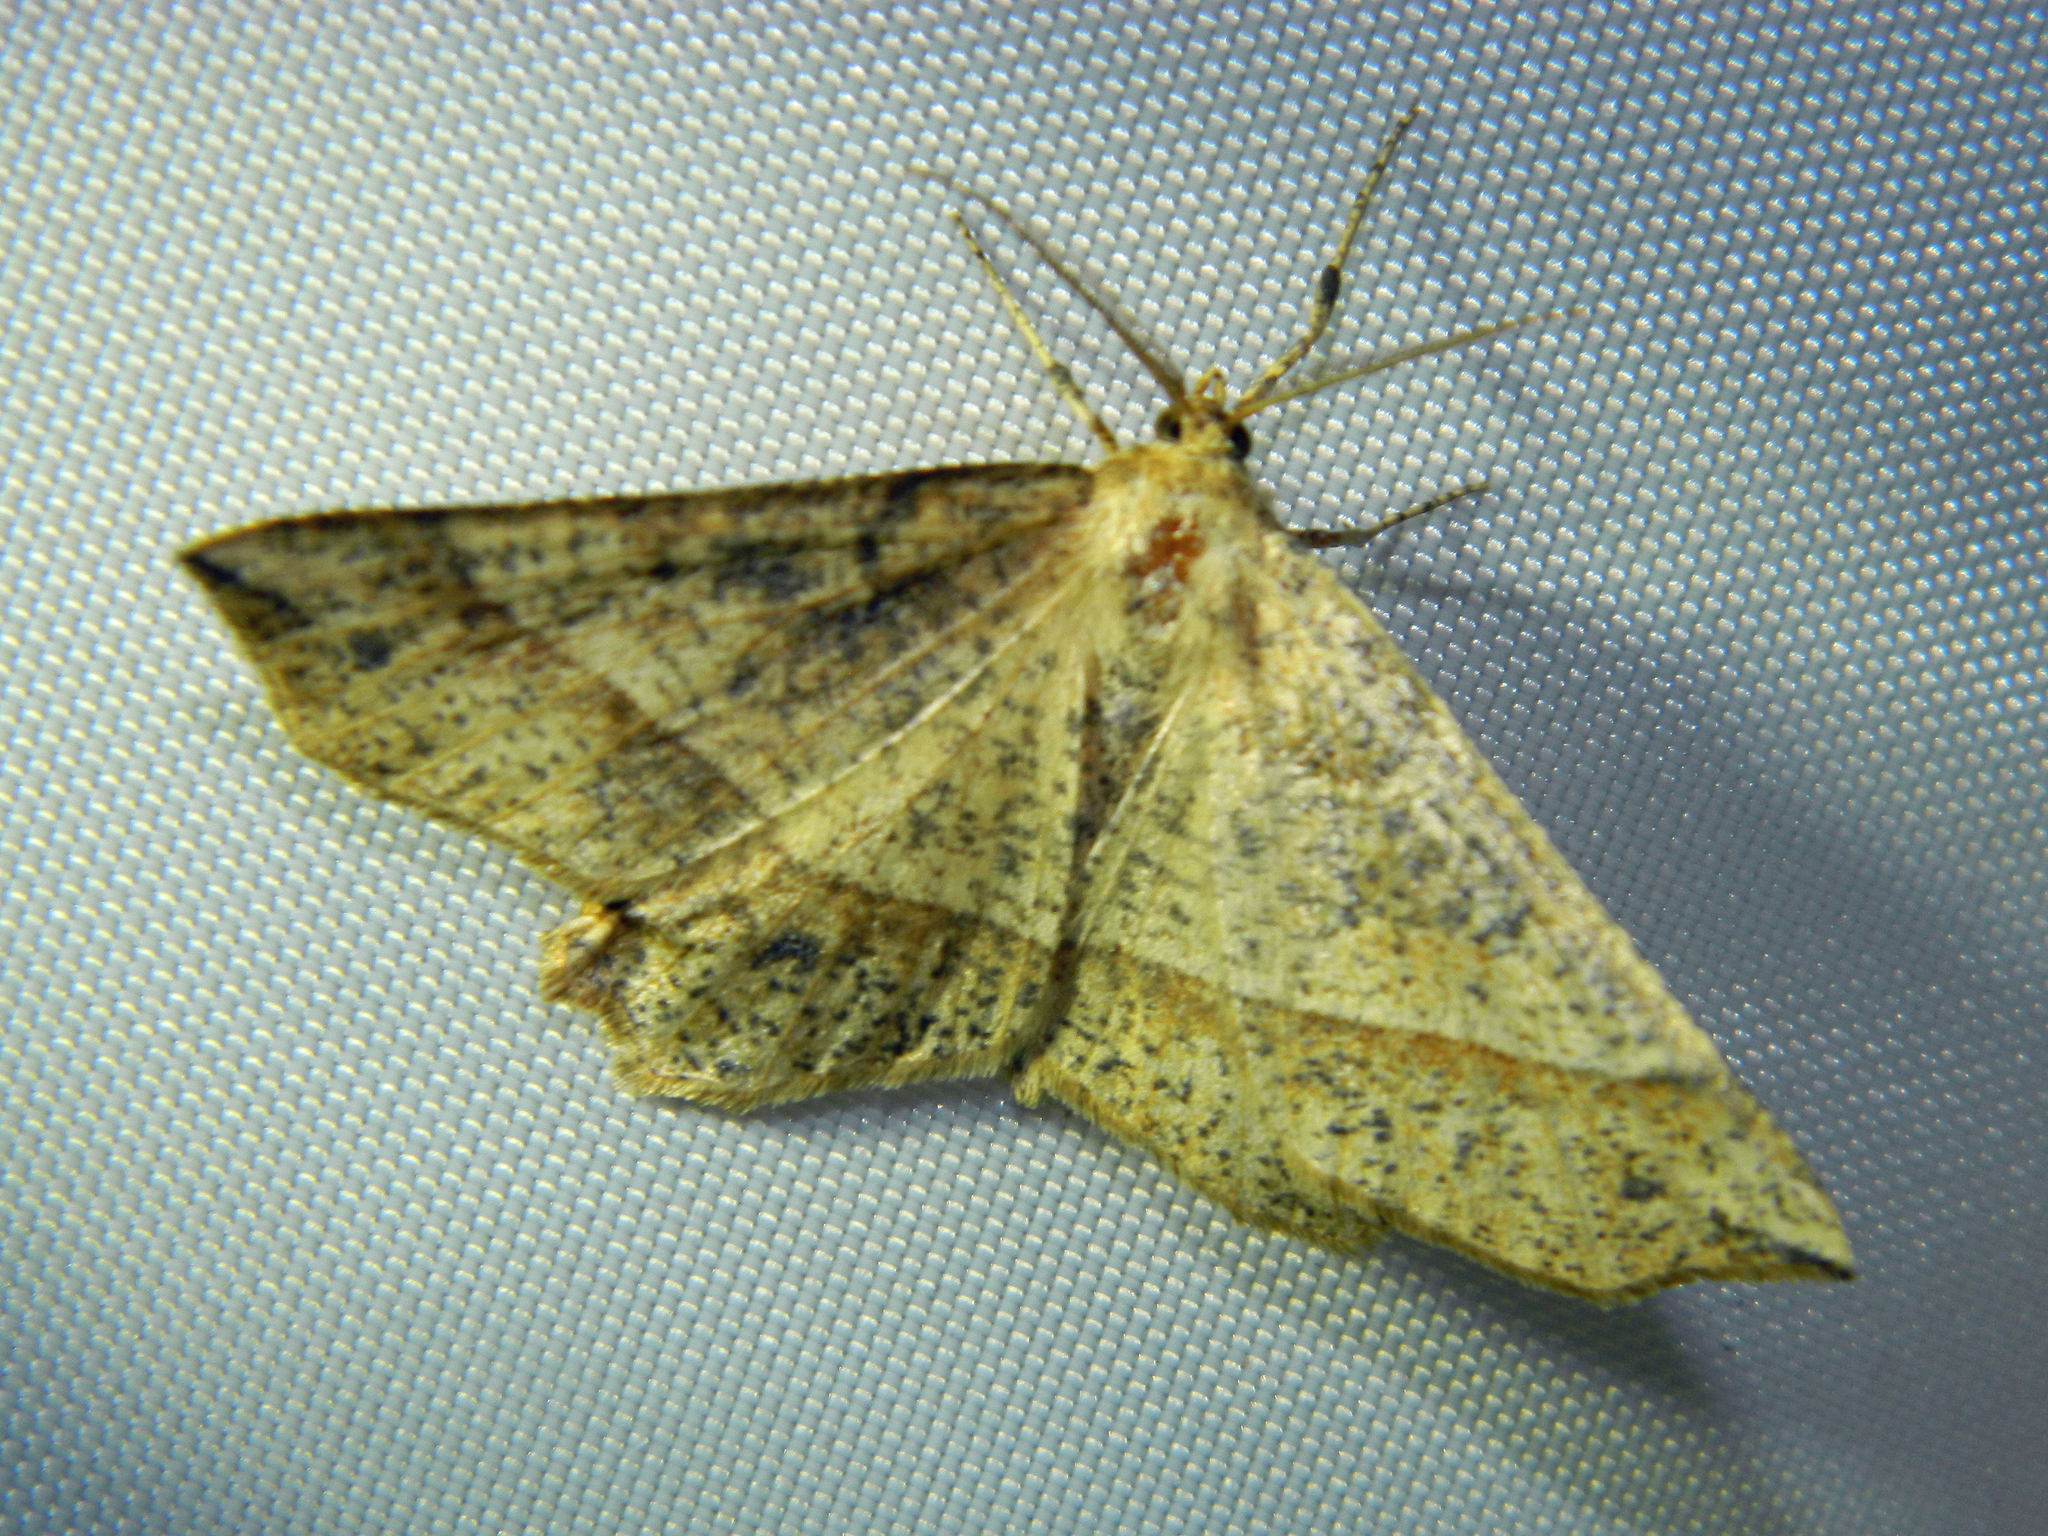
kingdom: Animalia
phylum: Arthropoda
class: Insecta
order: Lepidoptera
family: Geometridae
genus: Euchlaena
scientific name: Euchlaena tigrinaria
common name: Mottled euchlaena moth
